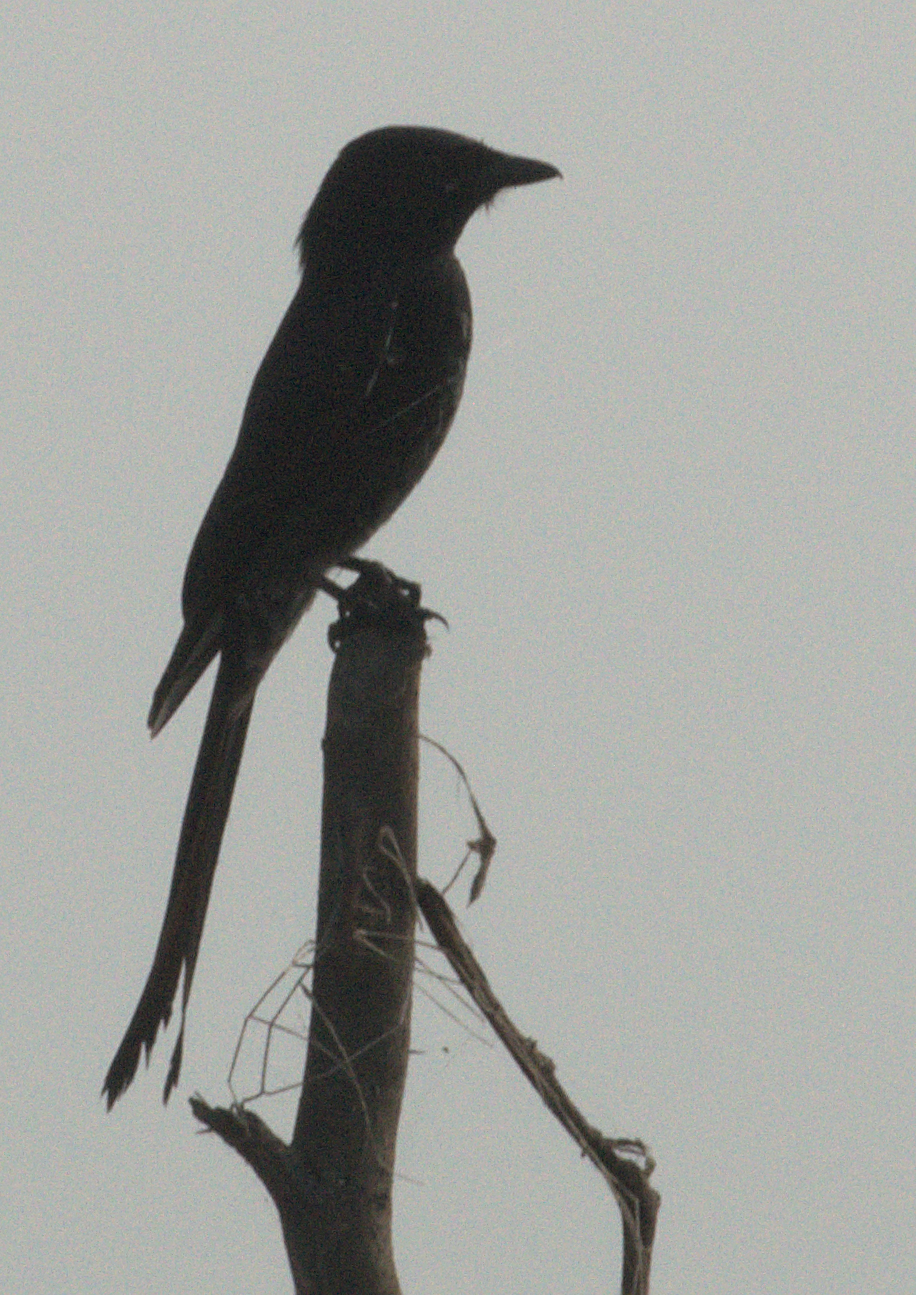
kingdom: Animalia
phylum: Chordata
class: Aves
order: Passeriformes
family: Dicruridae
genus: Dicrurus
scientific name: Dicrurus macrocercus
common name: Black drongo
